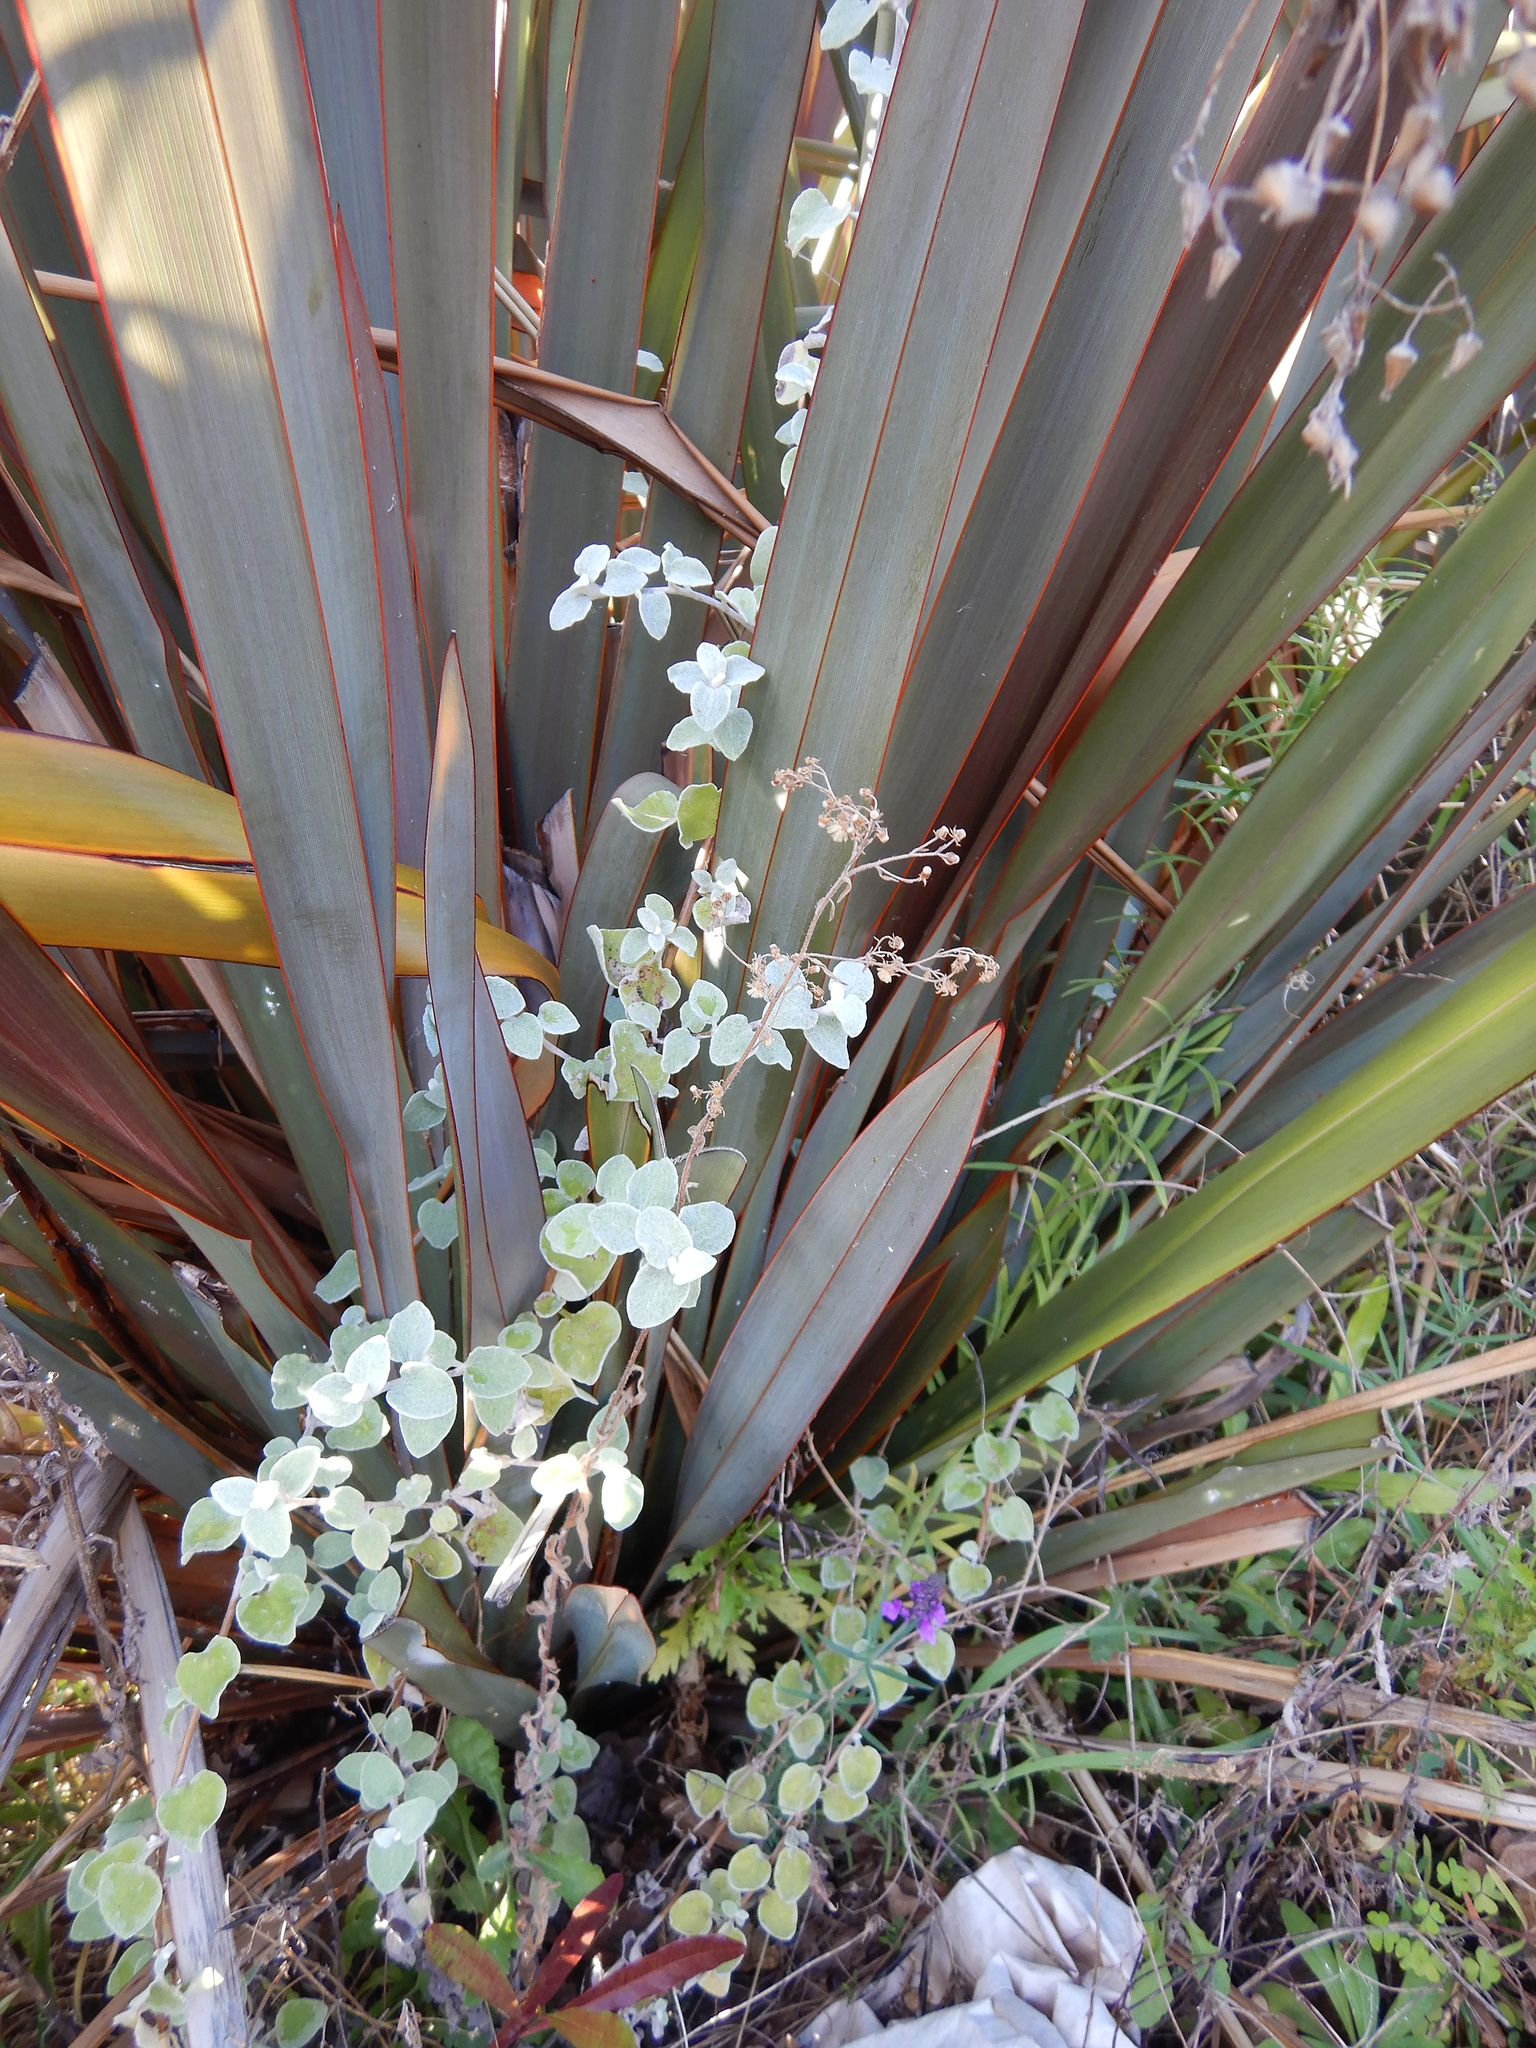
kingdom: Plantae
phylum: Tracheophyta
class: Magnoliopsida
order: Asterales
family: Asteraceae
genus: Helichrysum
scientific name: Helichrysum petiolare
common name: Licorice-plant
